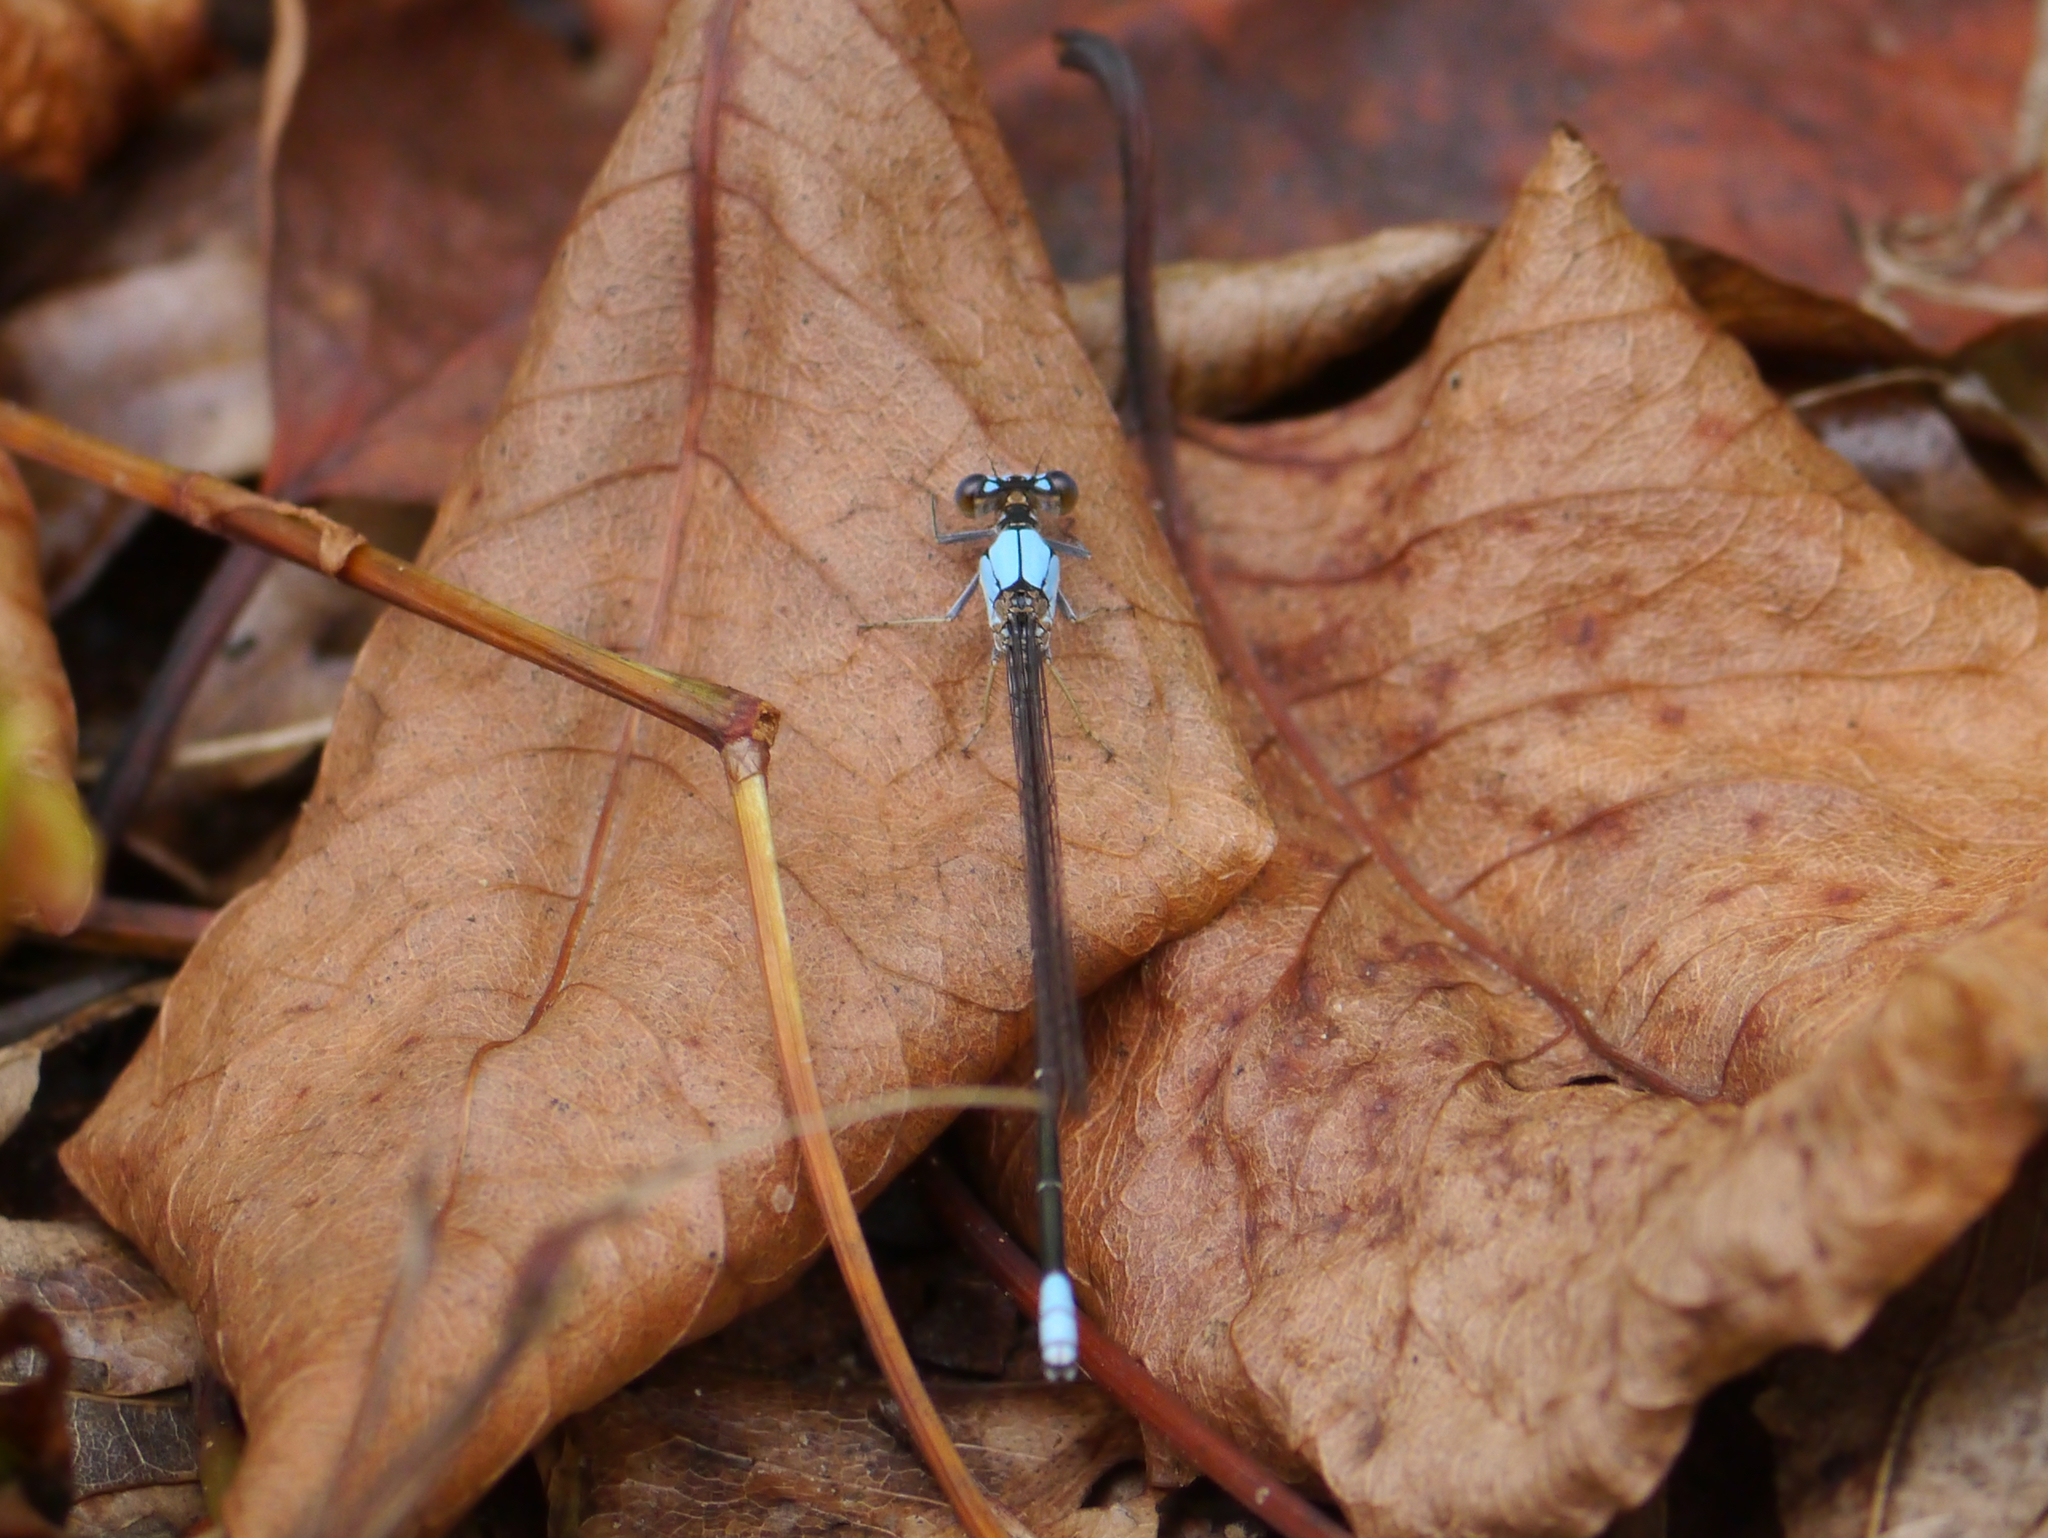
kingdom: Animalia
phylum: Arthropoda
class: Insecta
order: Odonata
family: Coenagrionidae
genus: Argia
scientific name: Argia apicalis
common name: Blue-fronted dancer
